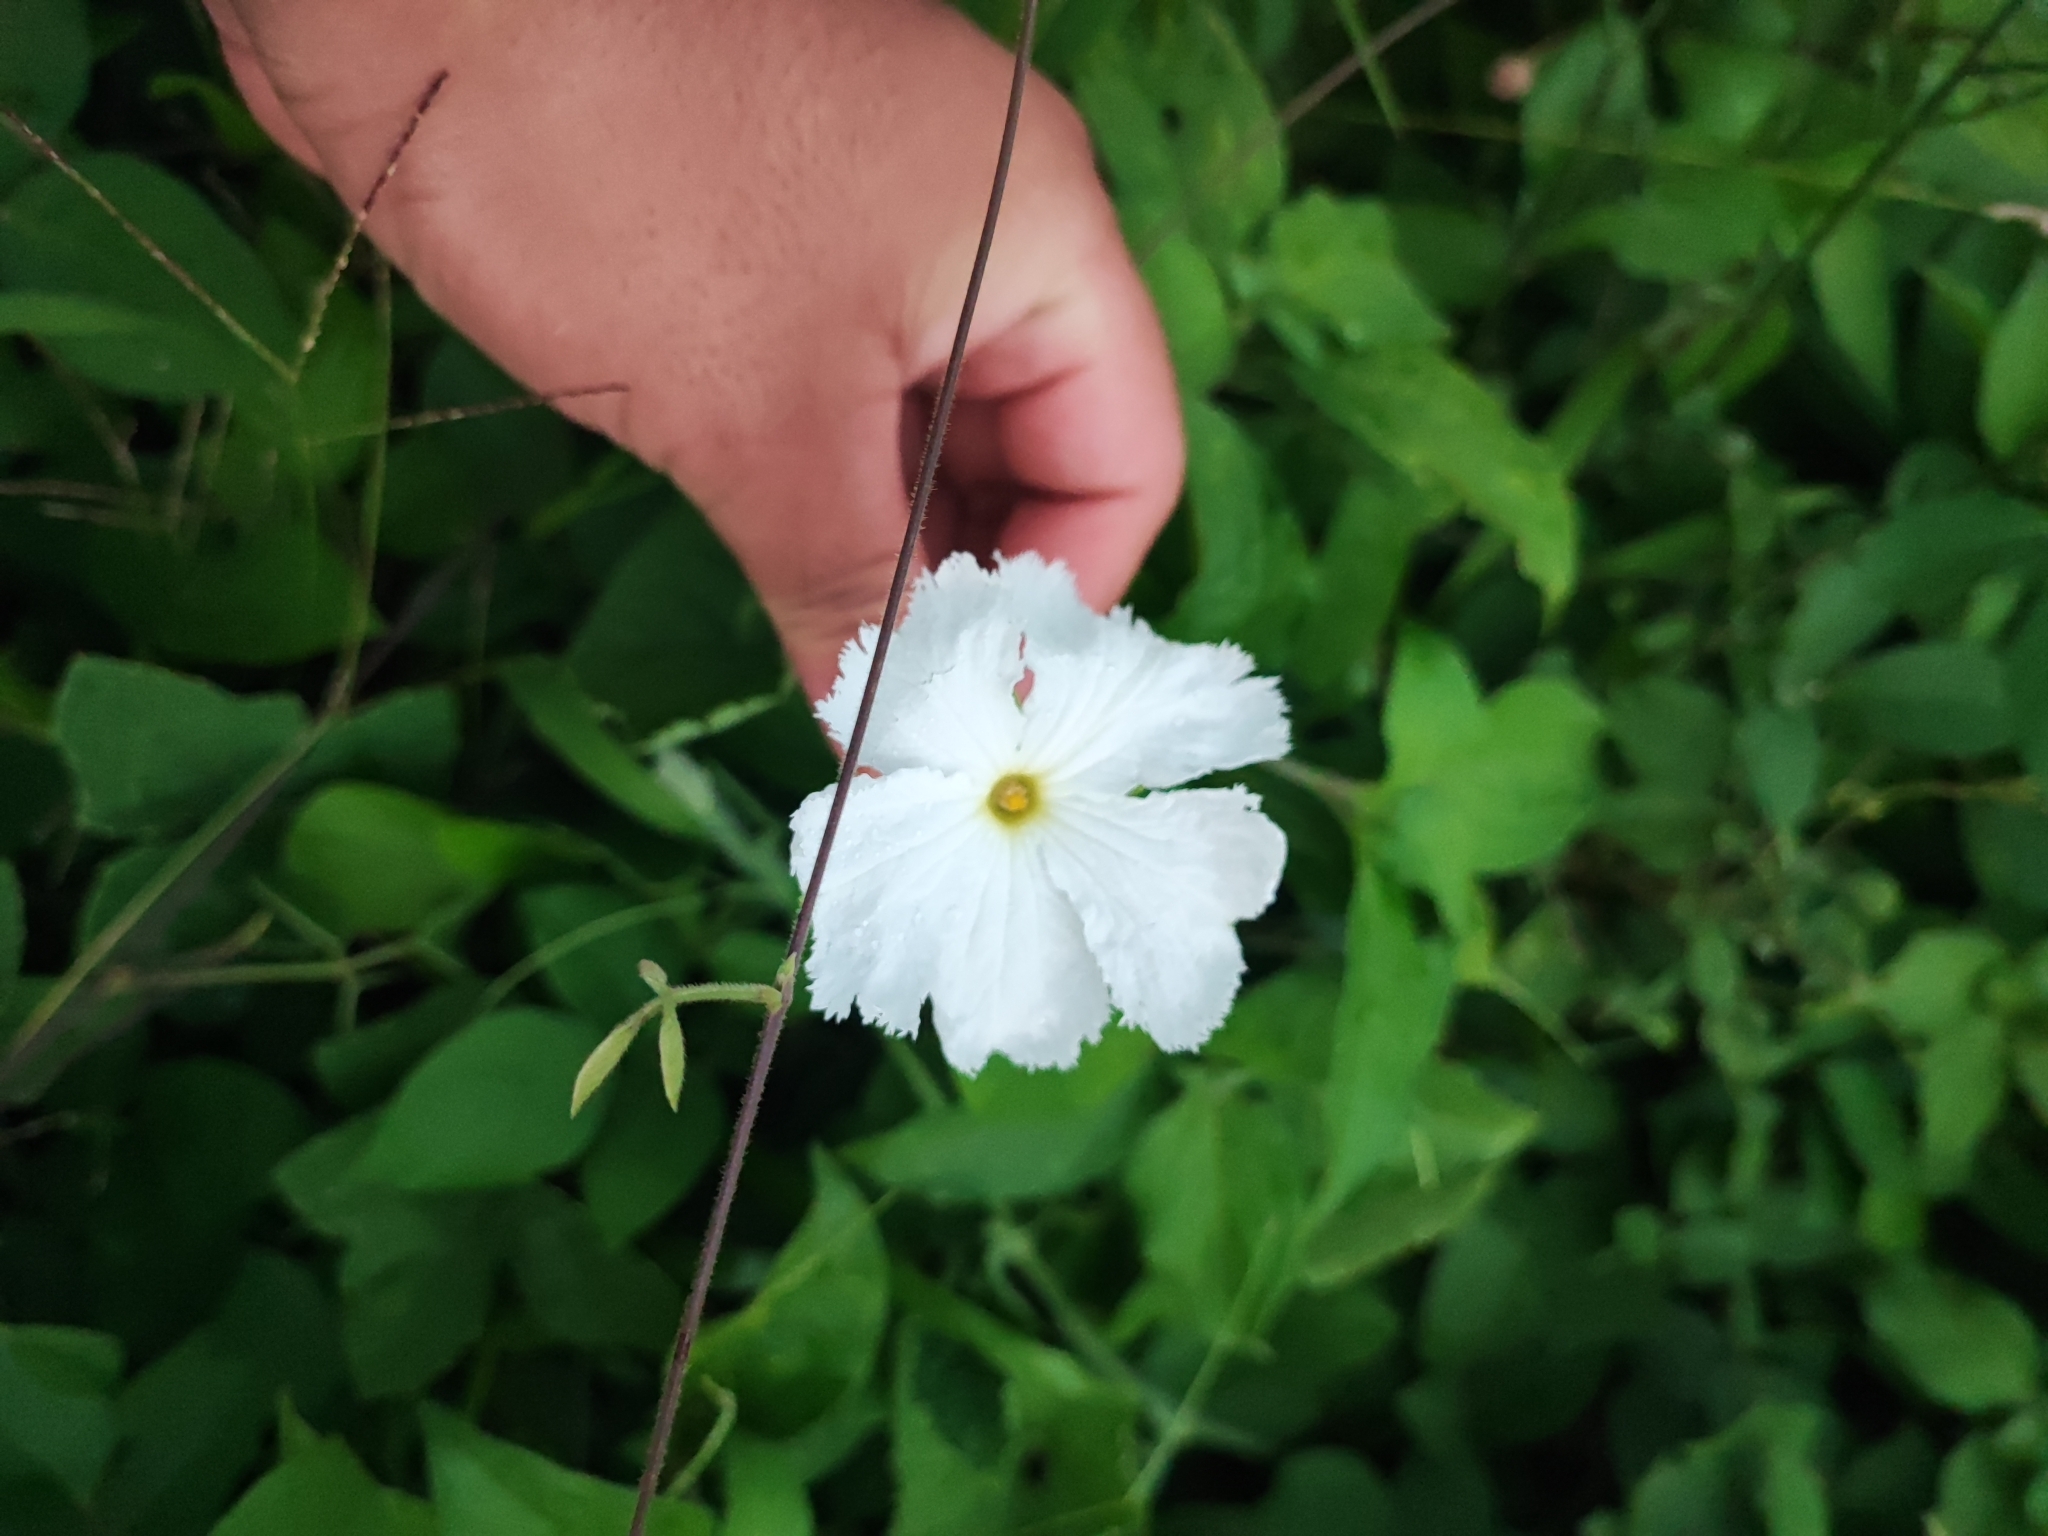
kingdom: Plantae
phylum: Tracheophyta
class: Magnoliopsida
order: Cucurbitales
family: Cucurbitaceae
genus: Trichosanthes
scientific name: Trichosanthes costata
